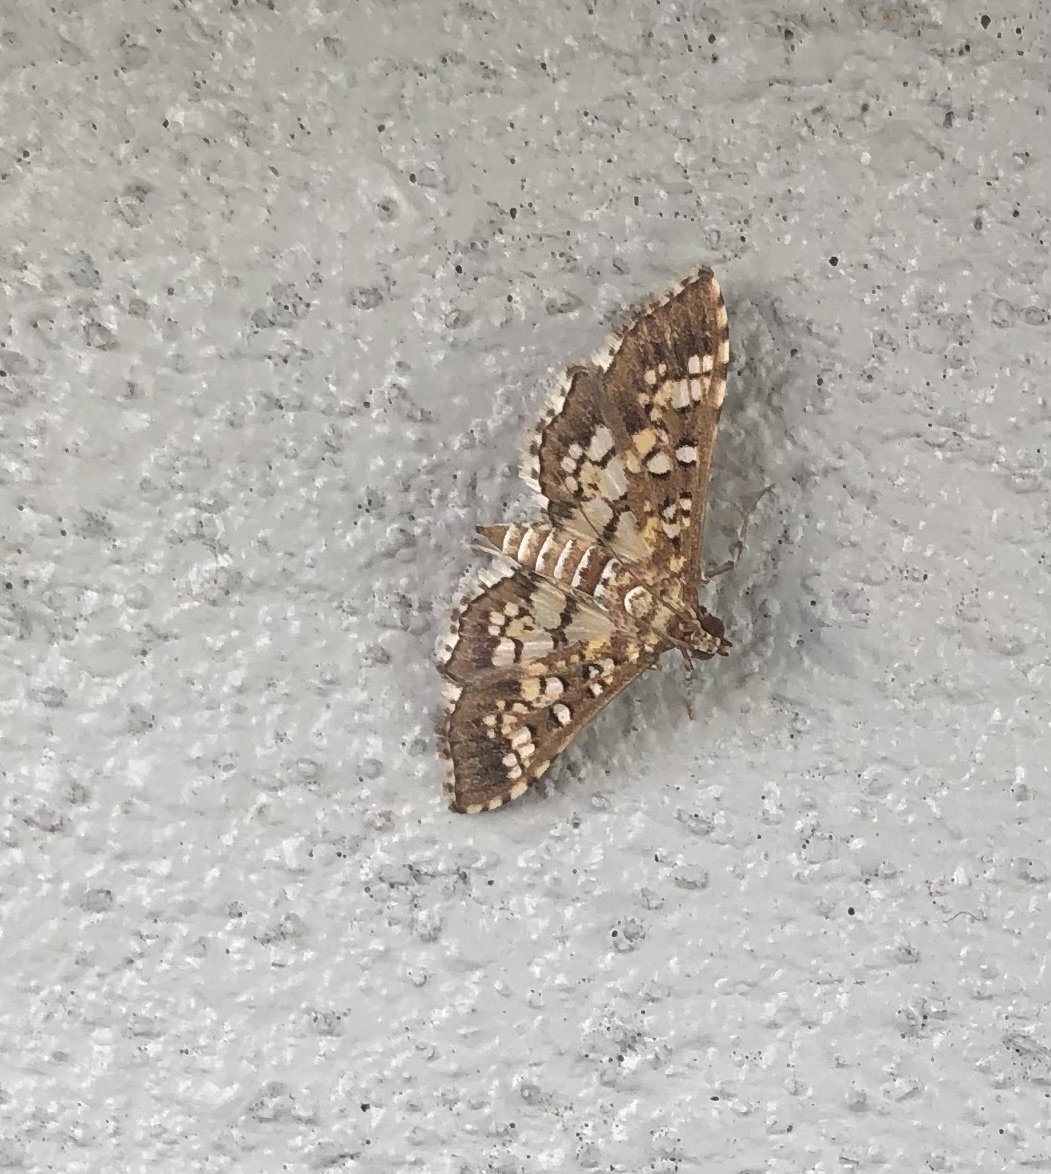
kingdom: Animalia
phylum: Arthropoda
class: Insecta
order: Lepidoptera
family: Crambidae
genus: Samea
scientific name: Samea ecclesialis
